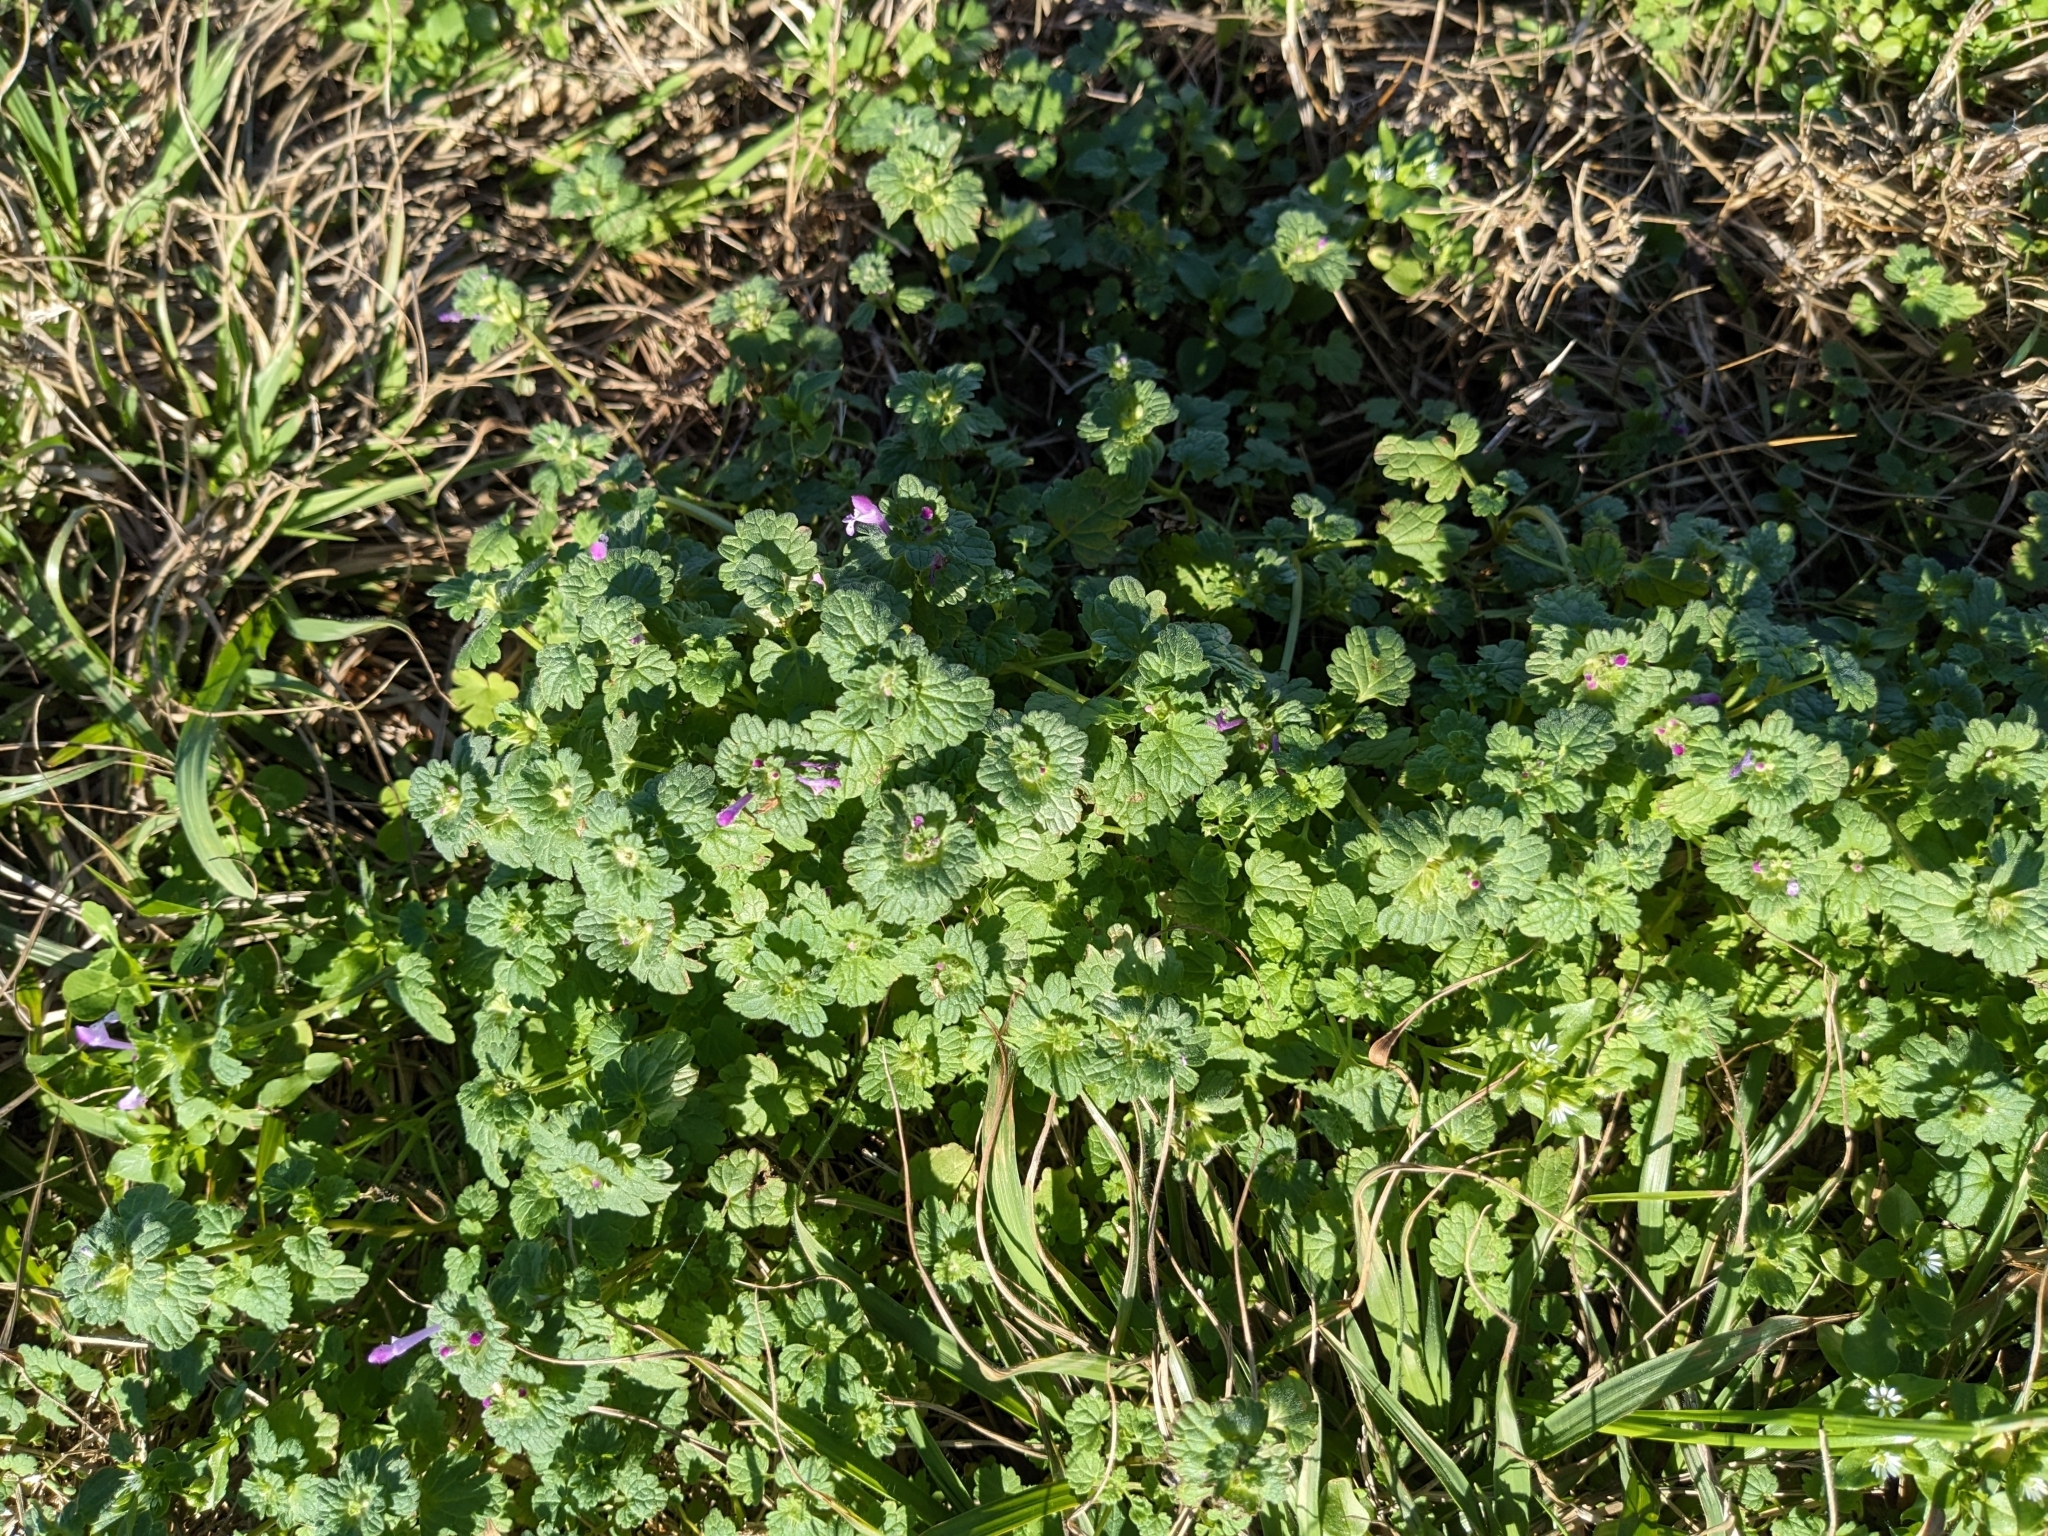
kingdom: Plantae
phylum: Tracheophyta
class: Magnoliopsida
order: Lamiales
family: Lamiaceae
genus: Lamium
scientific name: Lamium amplexicaule
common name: Henbit dead-nettle
